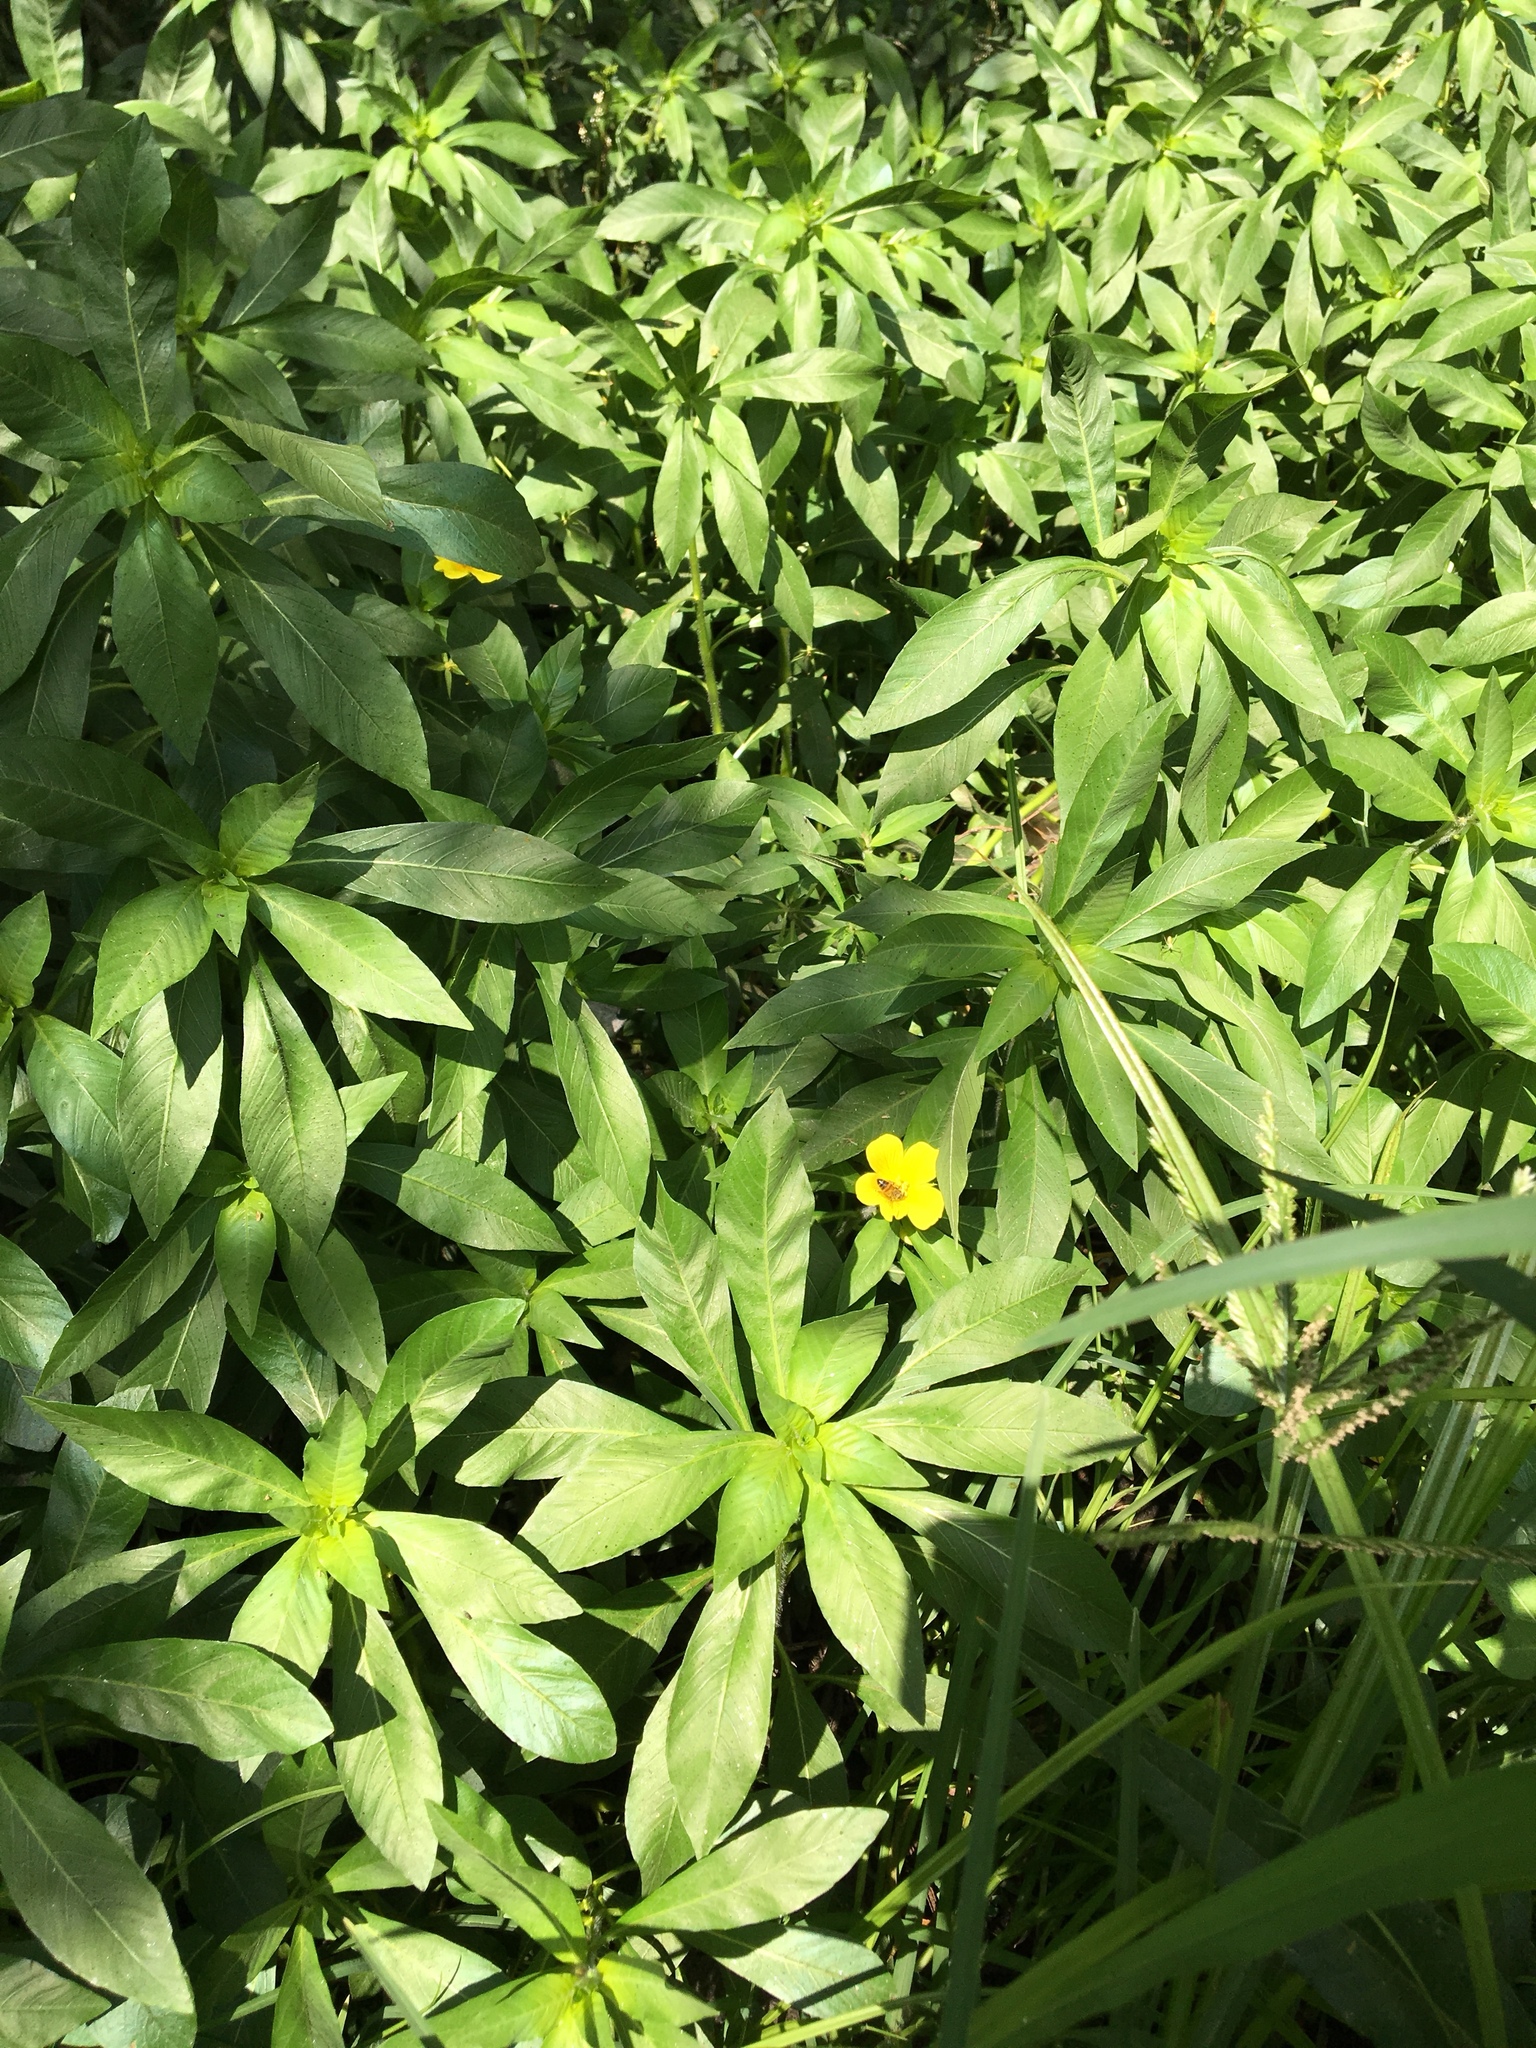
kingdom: Animalia
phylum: Arthropoda
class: Insecta
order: Hymenoptera
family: Apidae
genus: Apis
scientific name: Apis mellifera
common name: Honey bee
